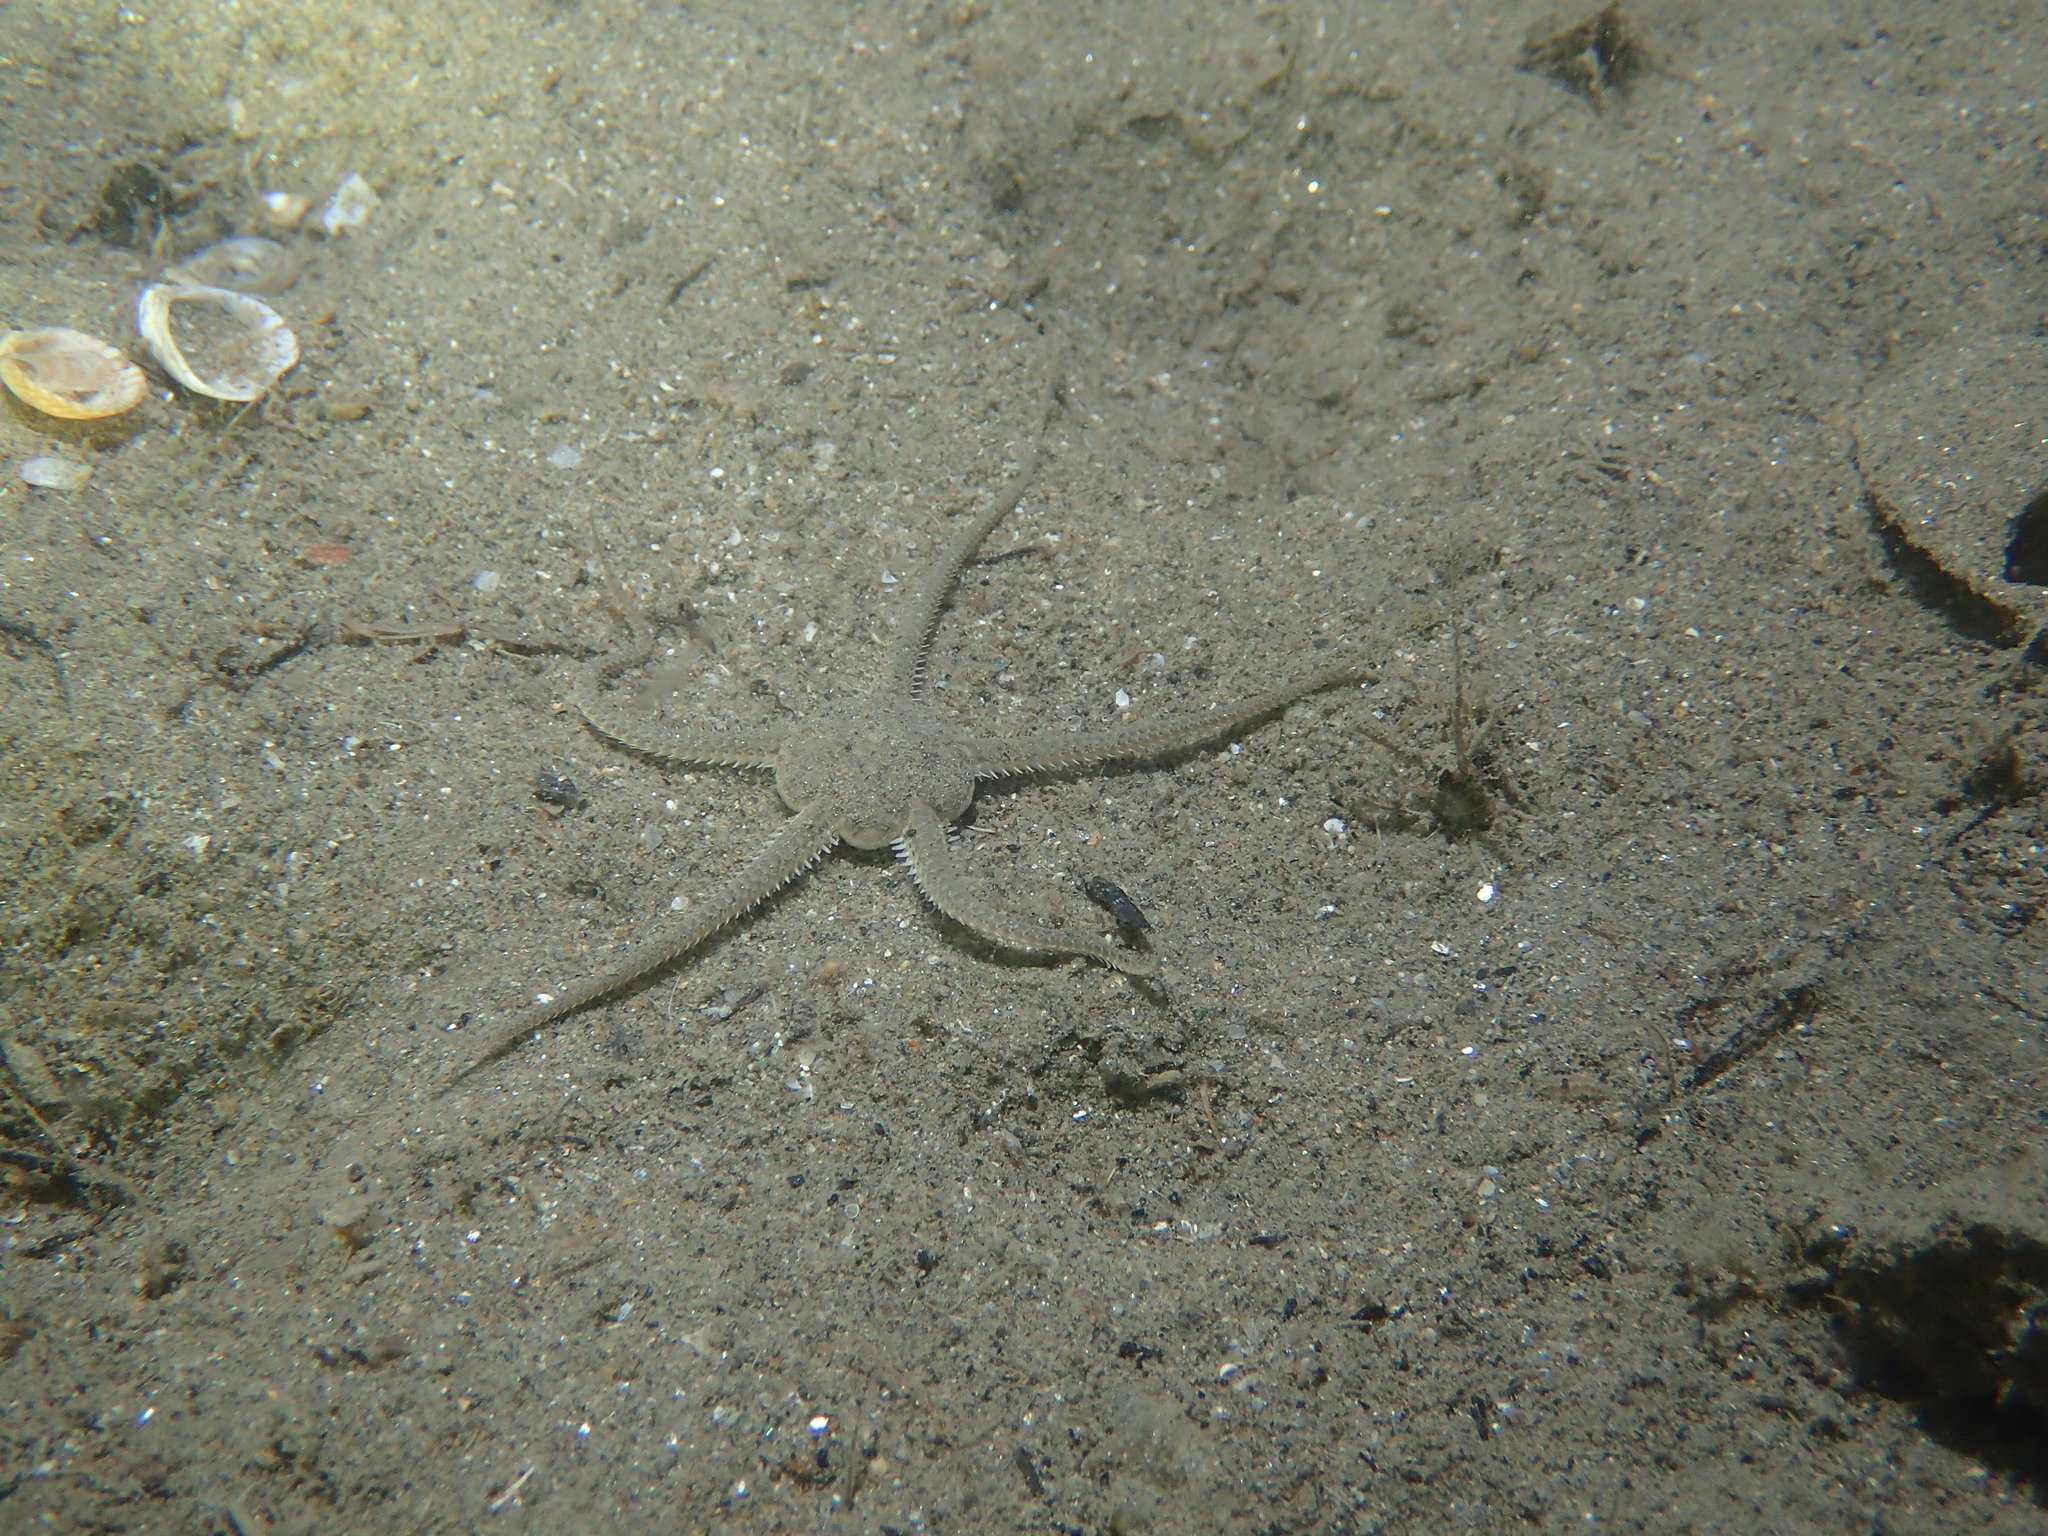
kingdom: Animalia
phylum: Echinodermata
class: Ophiuroidea
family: Ophiuridae
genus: Ophiura
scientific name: Ophiura ophiura
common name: Serpent star
